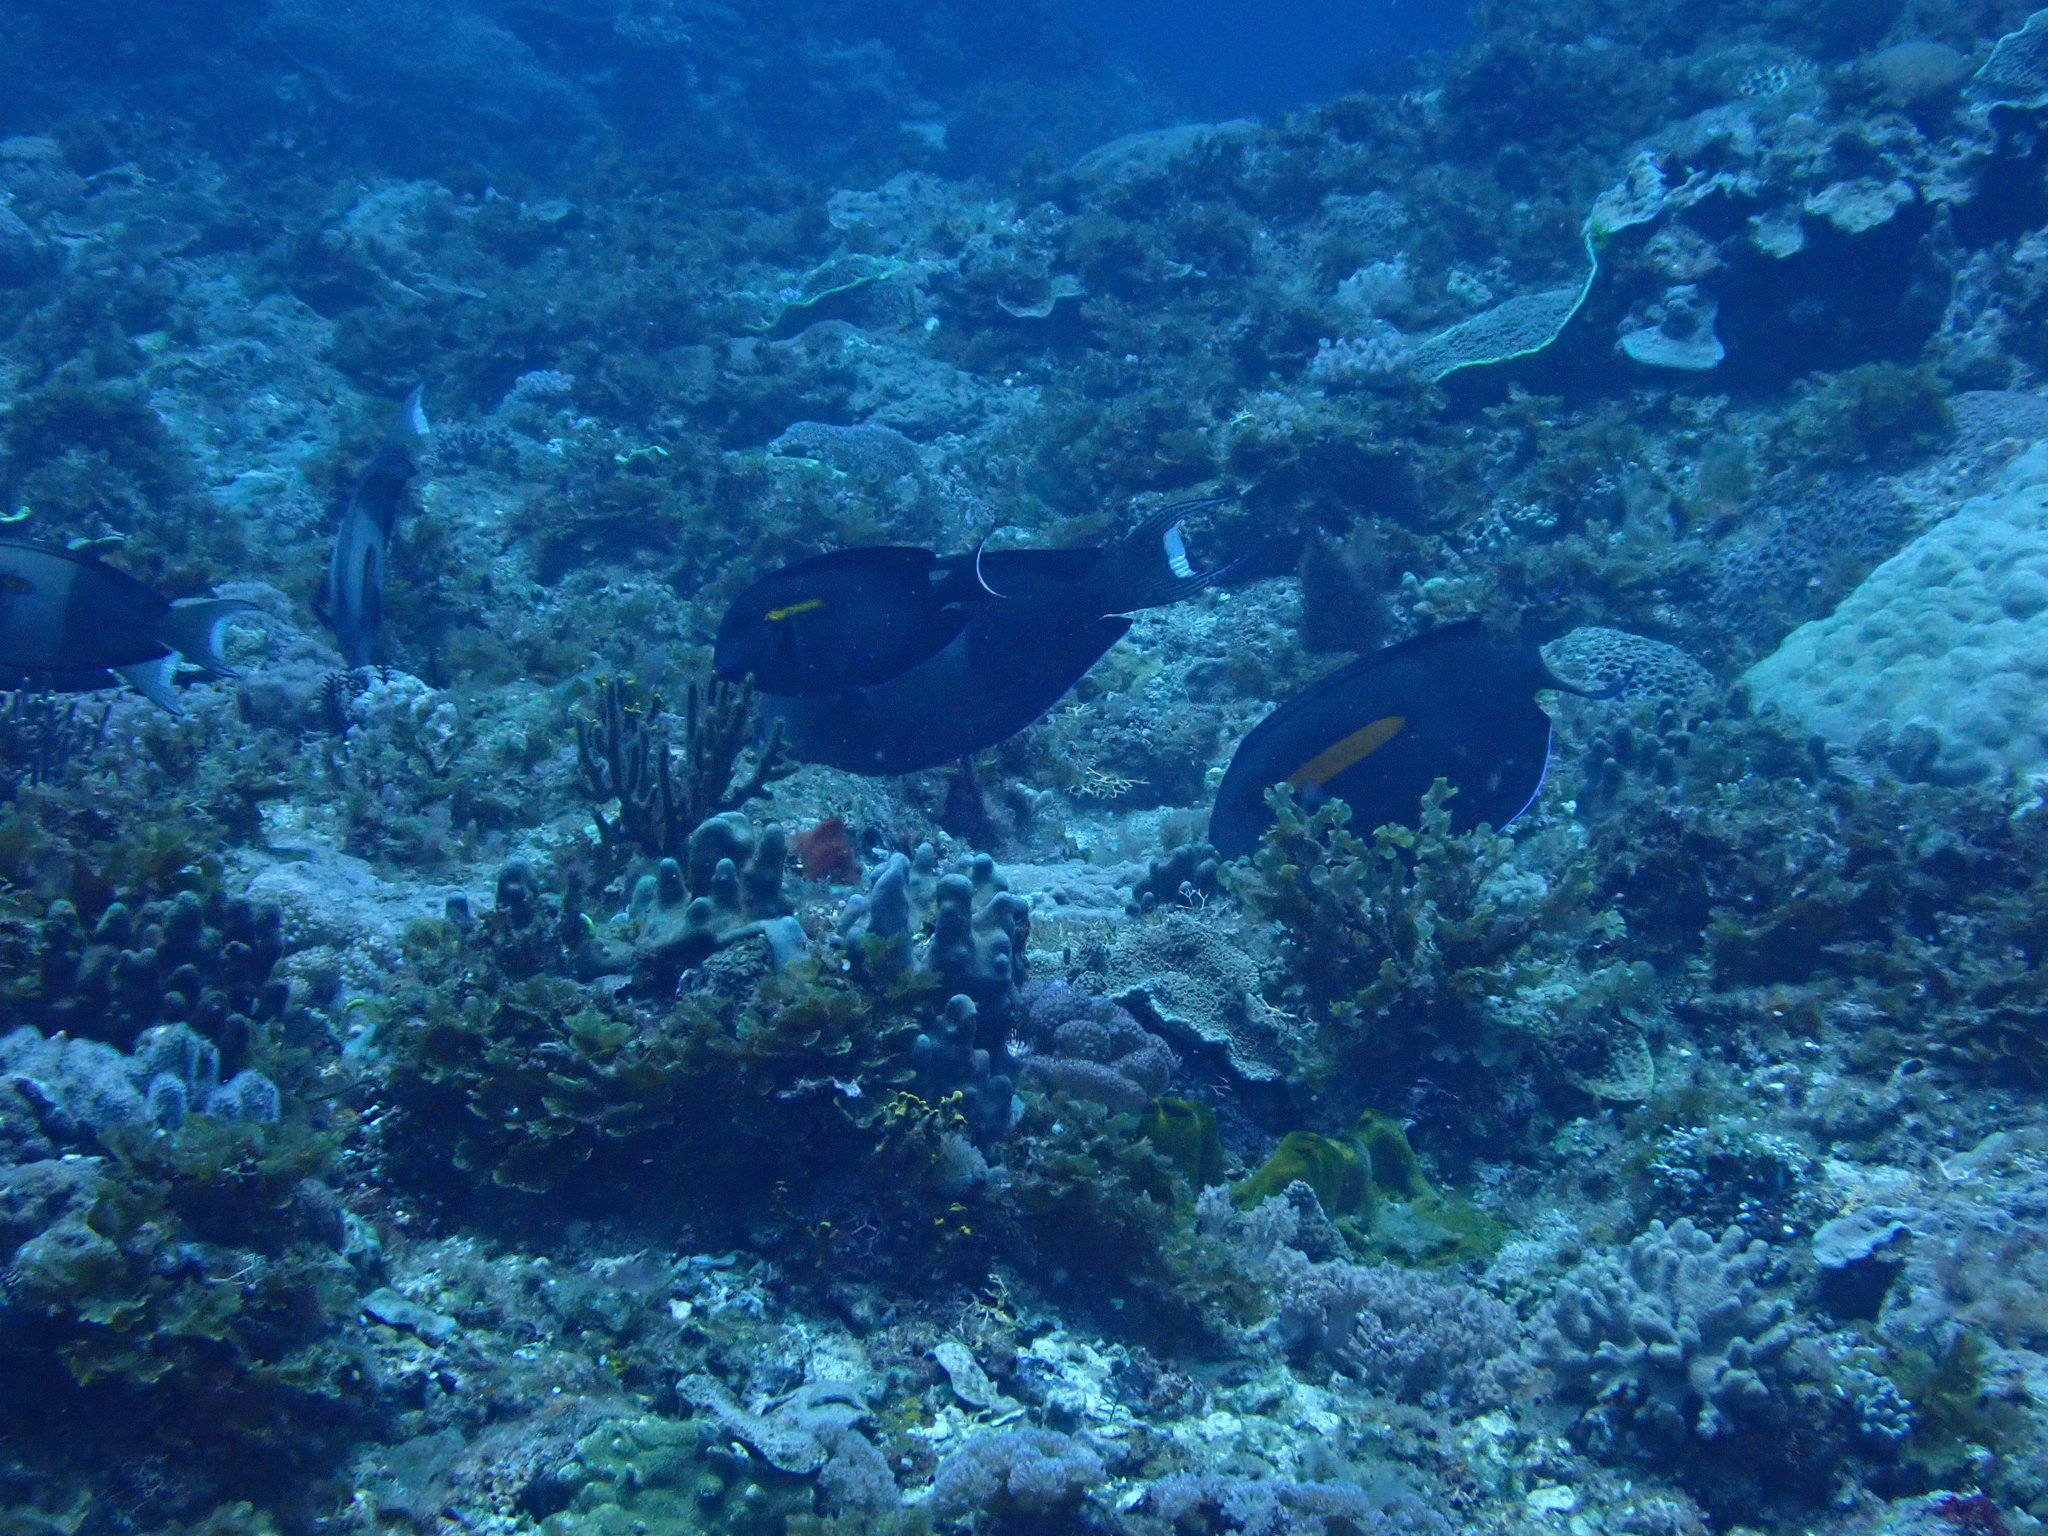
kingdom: Animalia
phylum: Chordata
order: Perciformes
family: Acanthuridae
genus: Acanthurus
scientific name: Acanthurus olivaceus
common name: Gendarme fish
